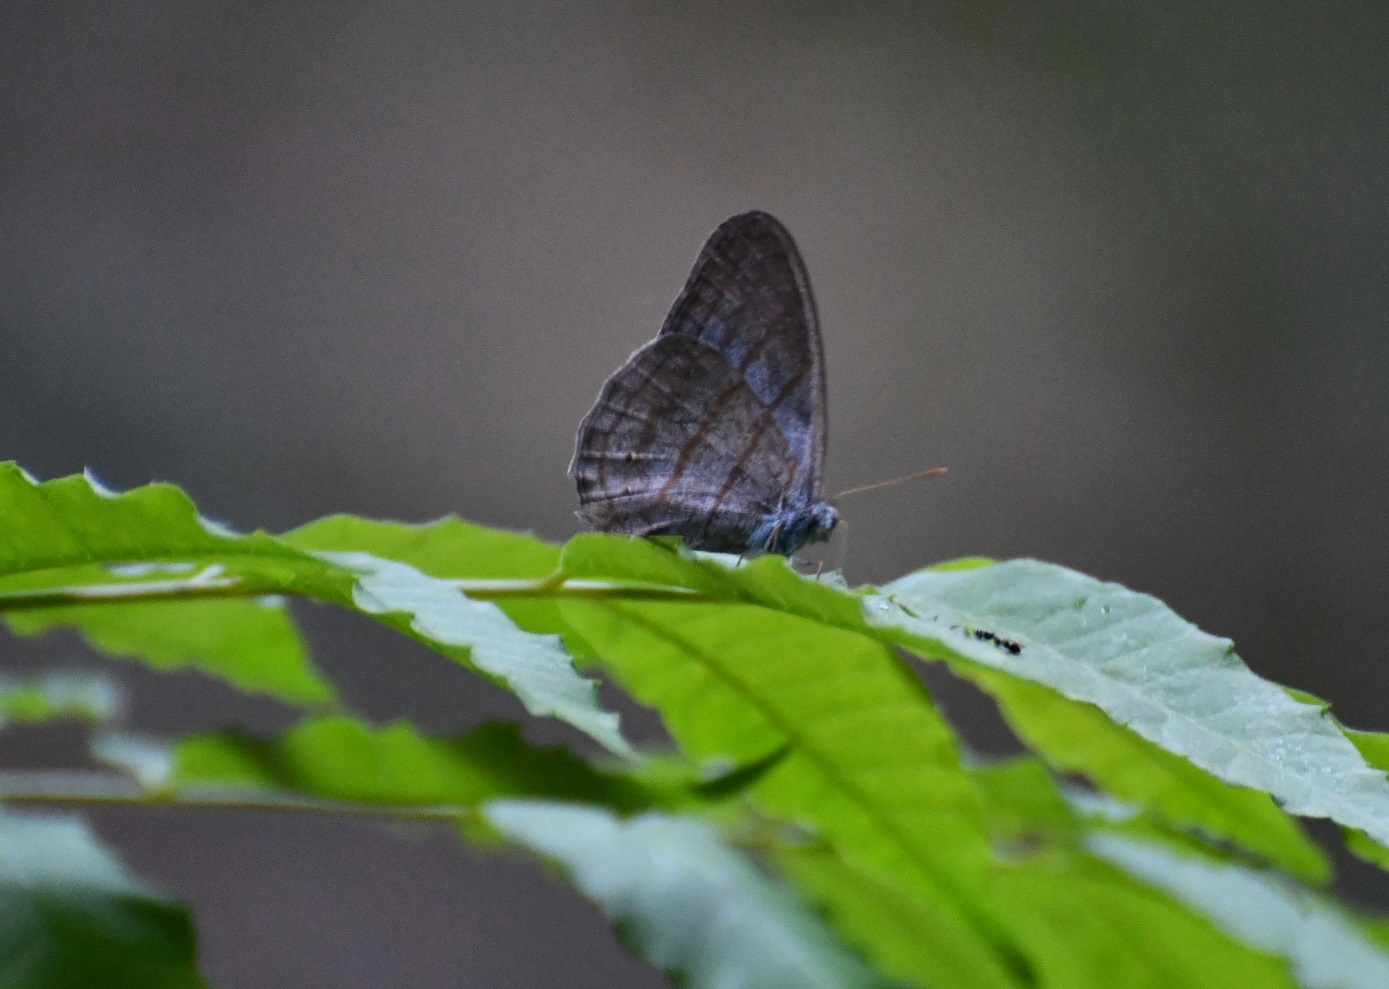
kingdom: Animalia
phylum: Arthropoda
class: Insecta
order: Lepidoptera
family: Nymphalidae
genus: Cepheuptychia
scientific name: Cepheuptychia glaucina
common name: Dirty-blue satyr
